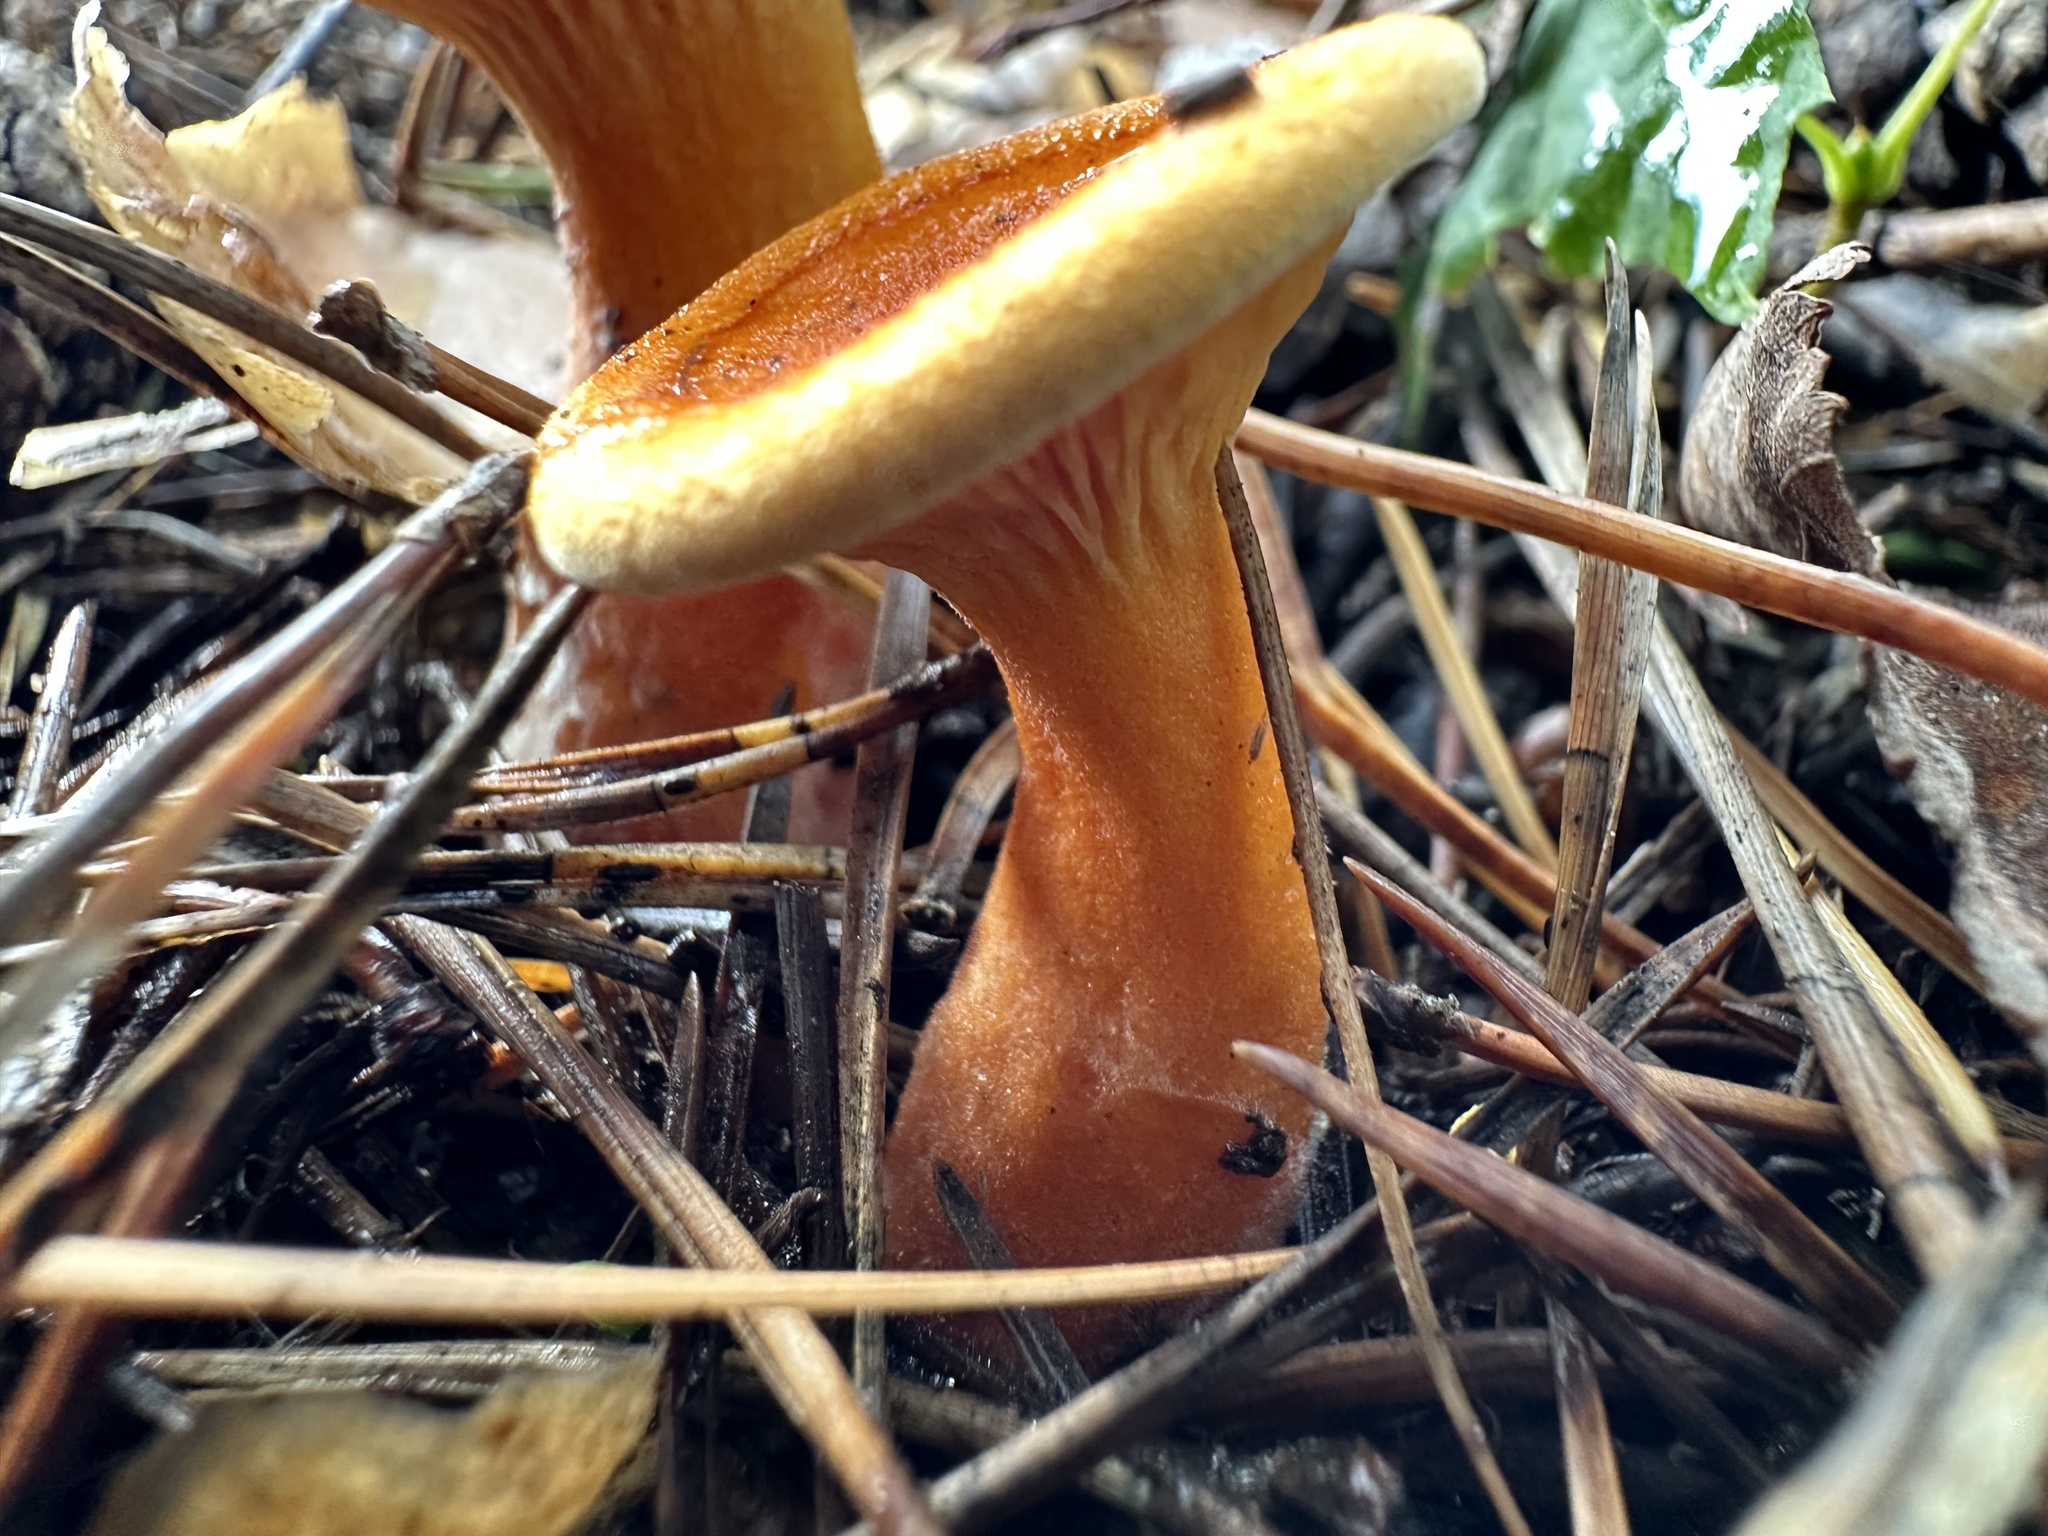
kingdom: Fungi
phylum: Basidiomycota
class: Agaricomycetes
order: Boletales
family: Hygrophoropsidaceae
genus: Hygrophoropsis
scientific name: Hygrophoropsis aurantiaca
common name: False chanterelle
